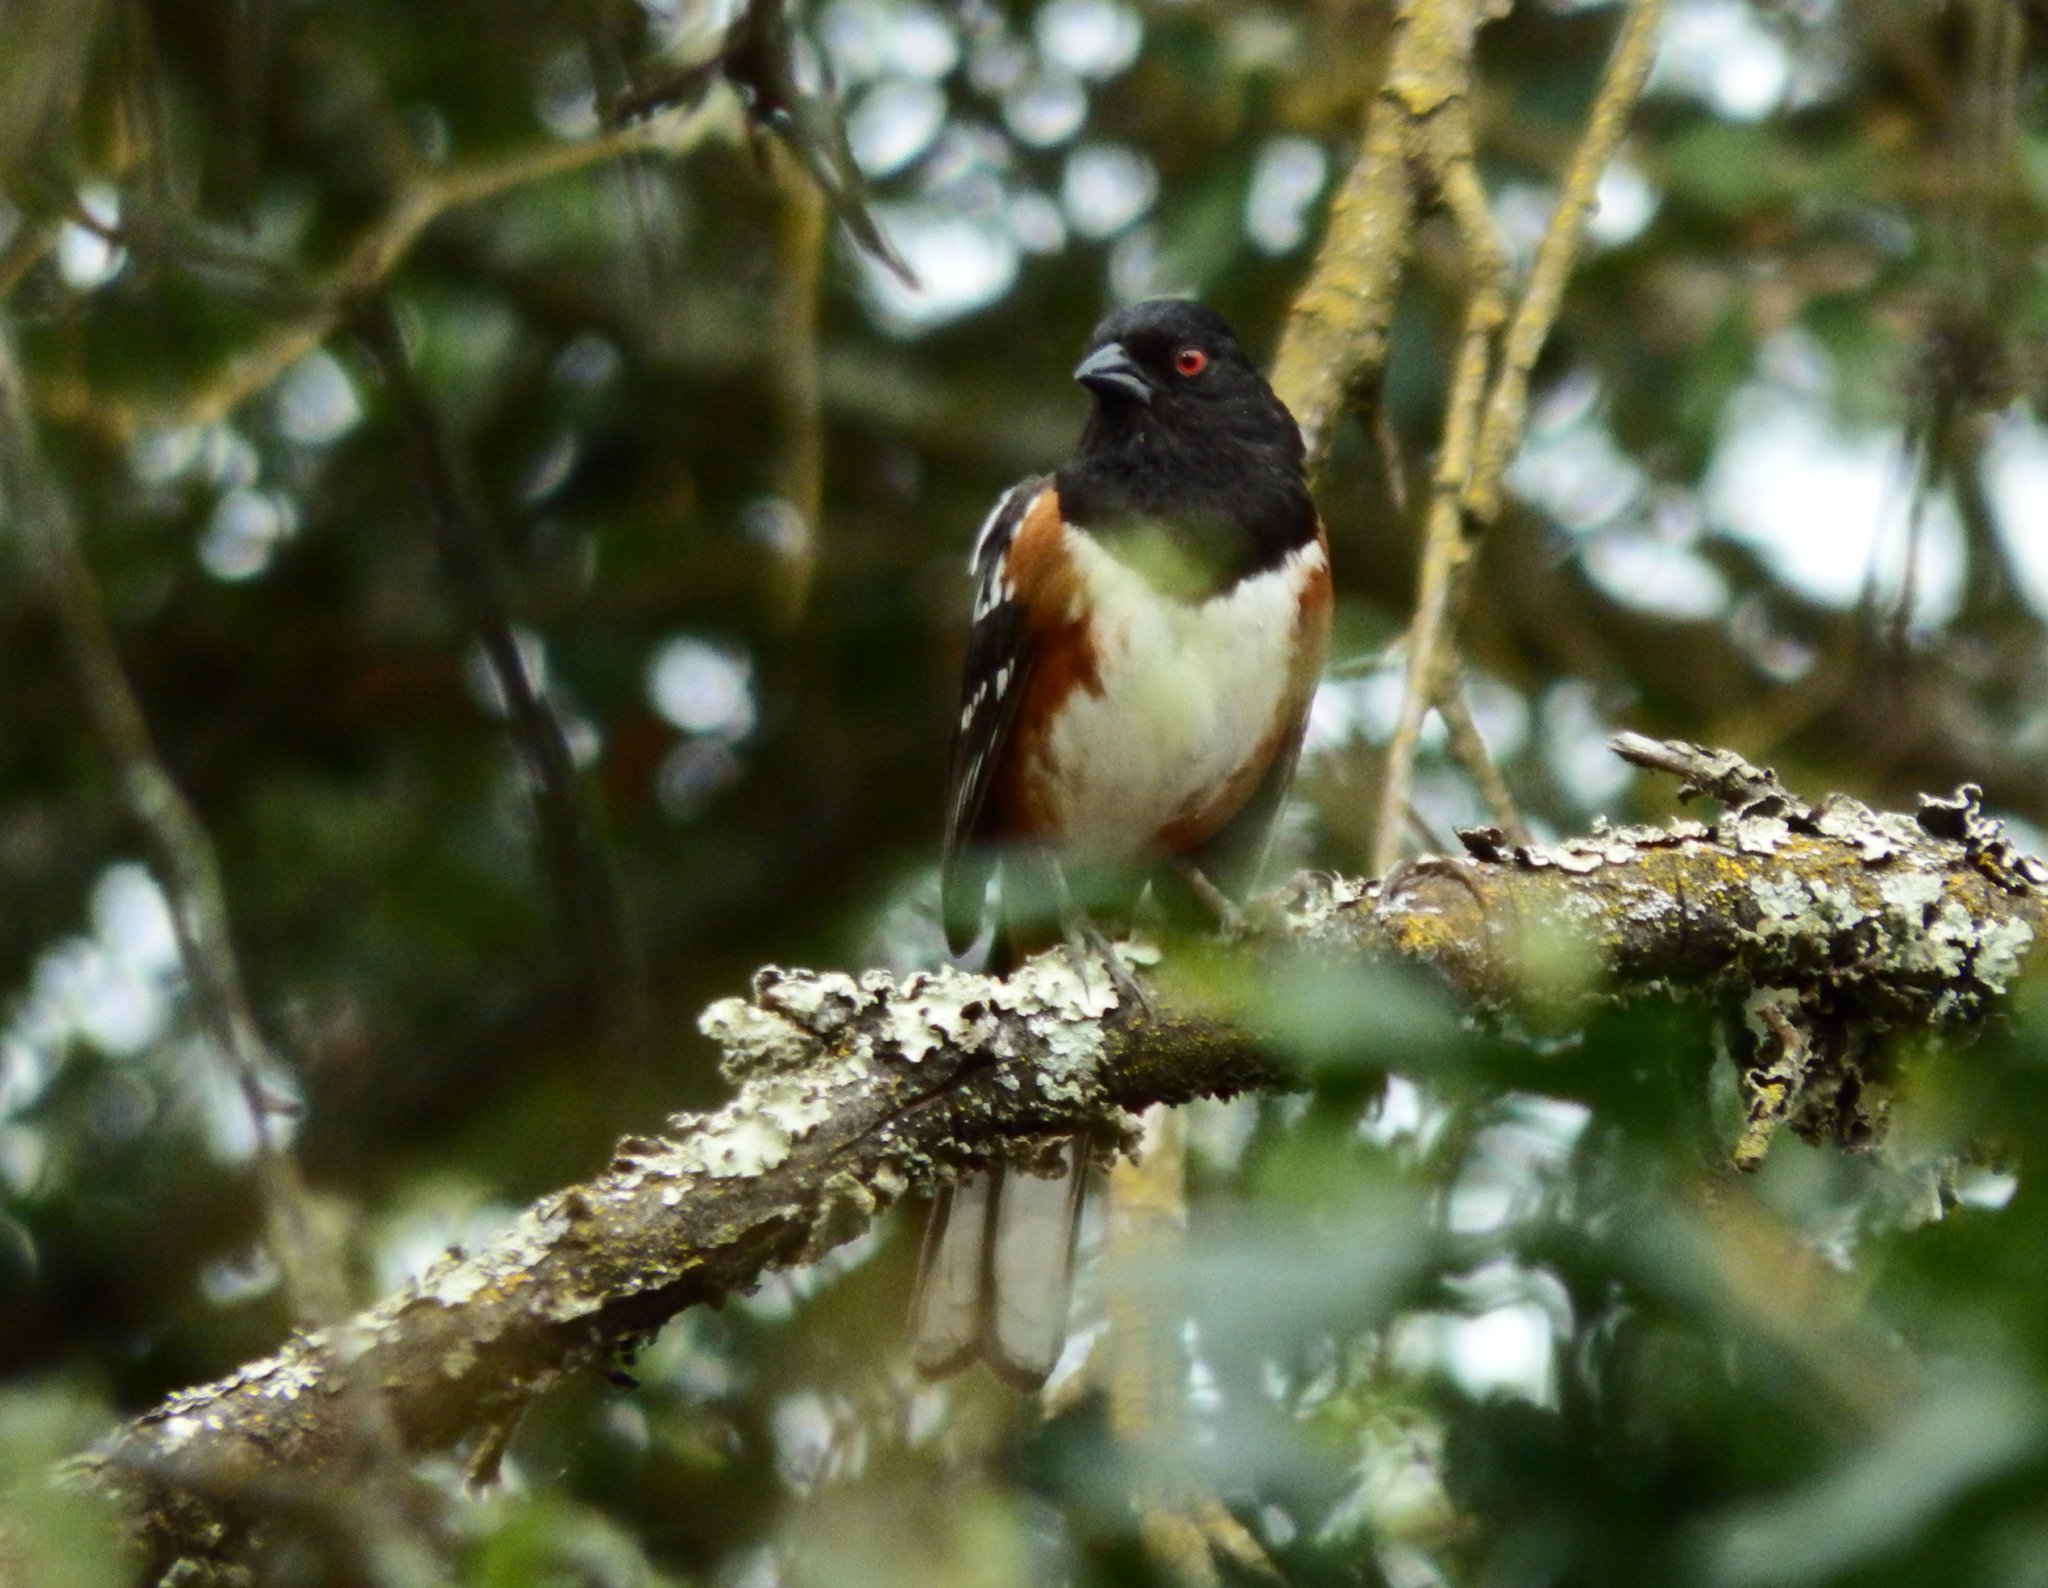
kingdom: Animalia
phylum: Chordata
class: Aves
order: Passeriformes
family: Passerellidae
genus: Pipilo
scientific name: Pipilo maculatus
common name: Spotted towhee
